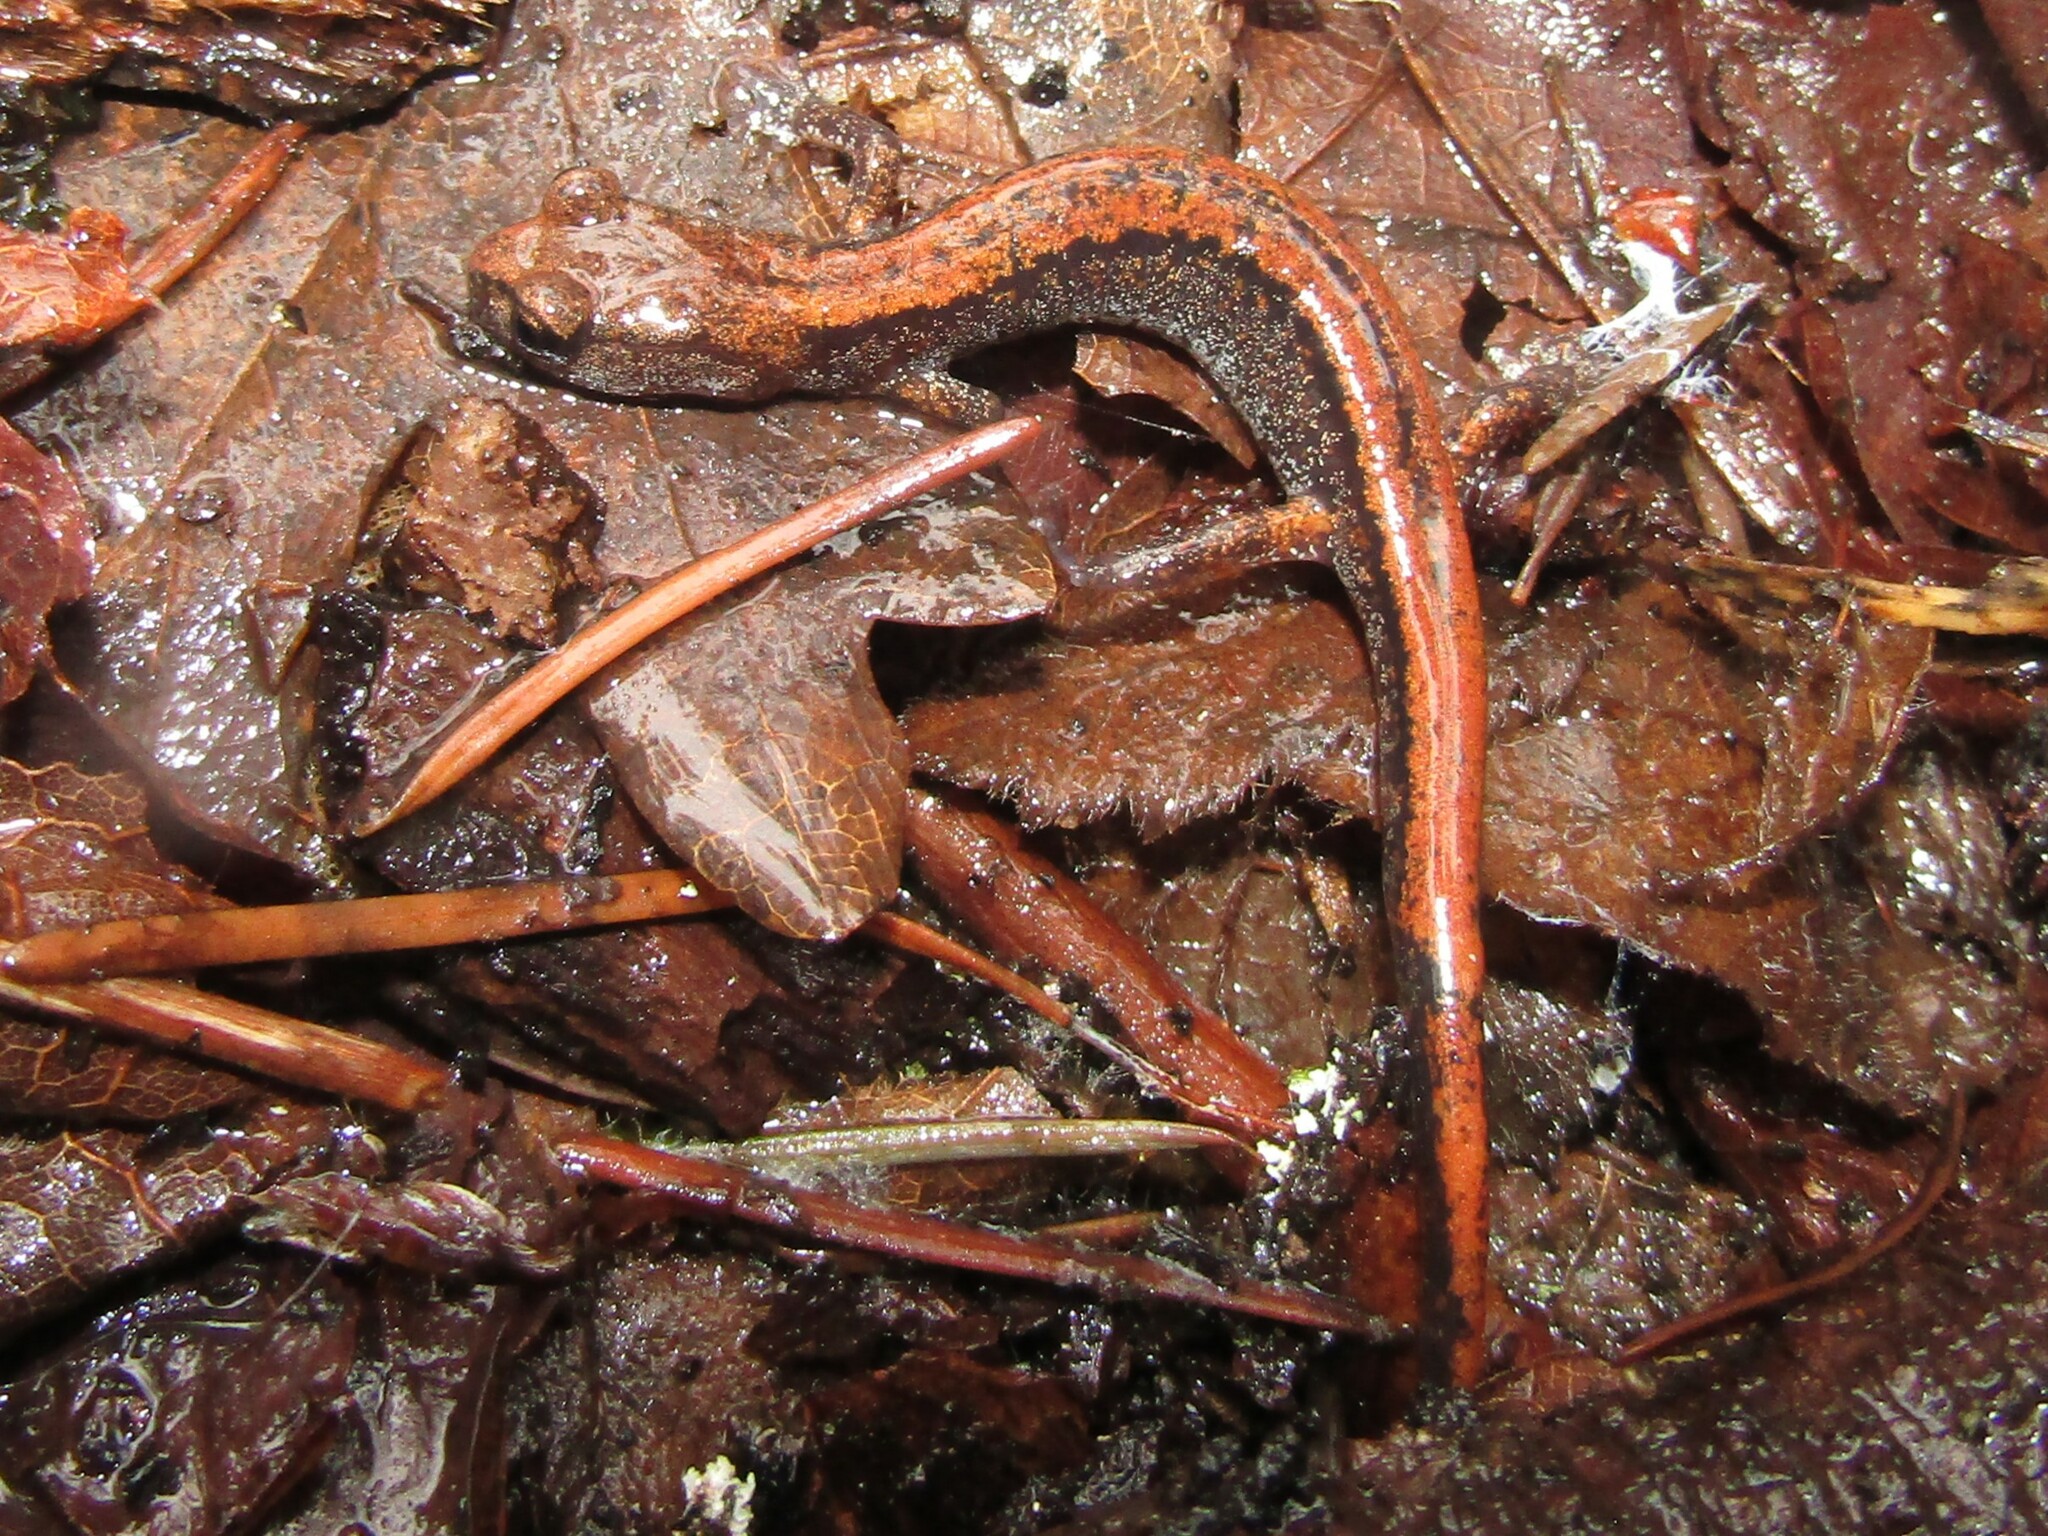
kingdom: Animalia
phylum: Chordata
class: Amphibia
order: Caudata
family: Plethodontidae
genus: Plethodon
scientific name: Plethodon larselli
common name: Larch mountain salamander
